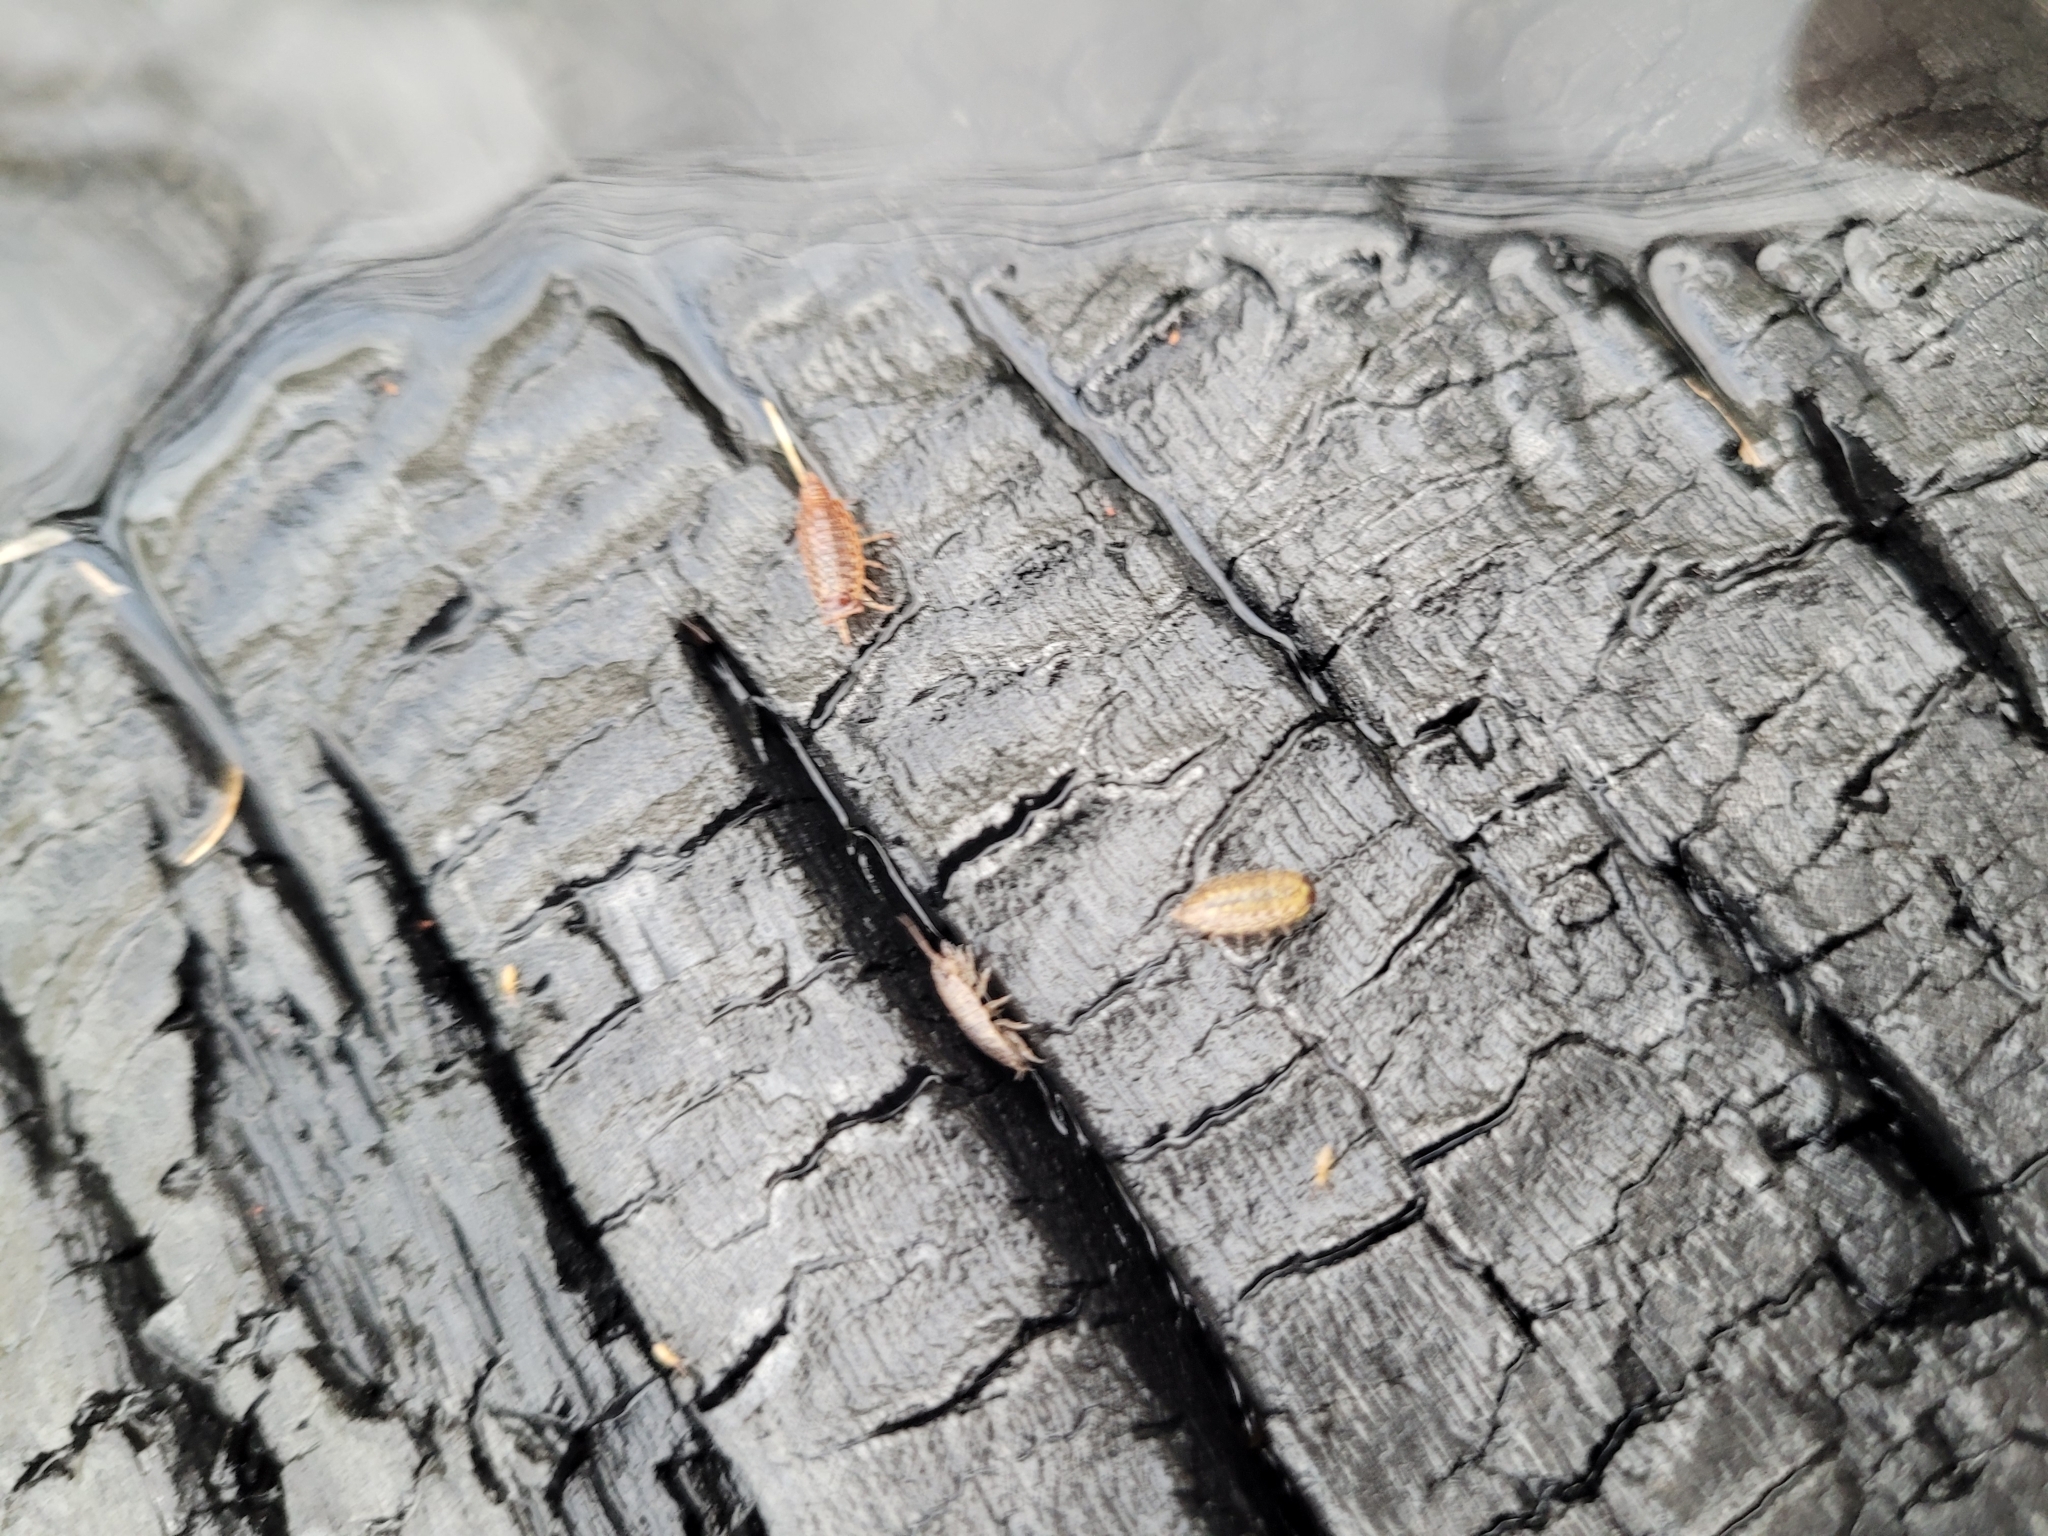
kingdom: Animalia
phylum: Arthropoda
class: Malacostraca
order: Isopoda
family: Philosciidae
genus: Philoscia
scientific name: Philoscia muscorum
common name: Common striped woodlouse
